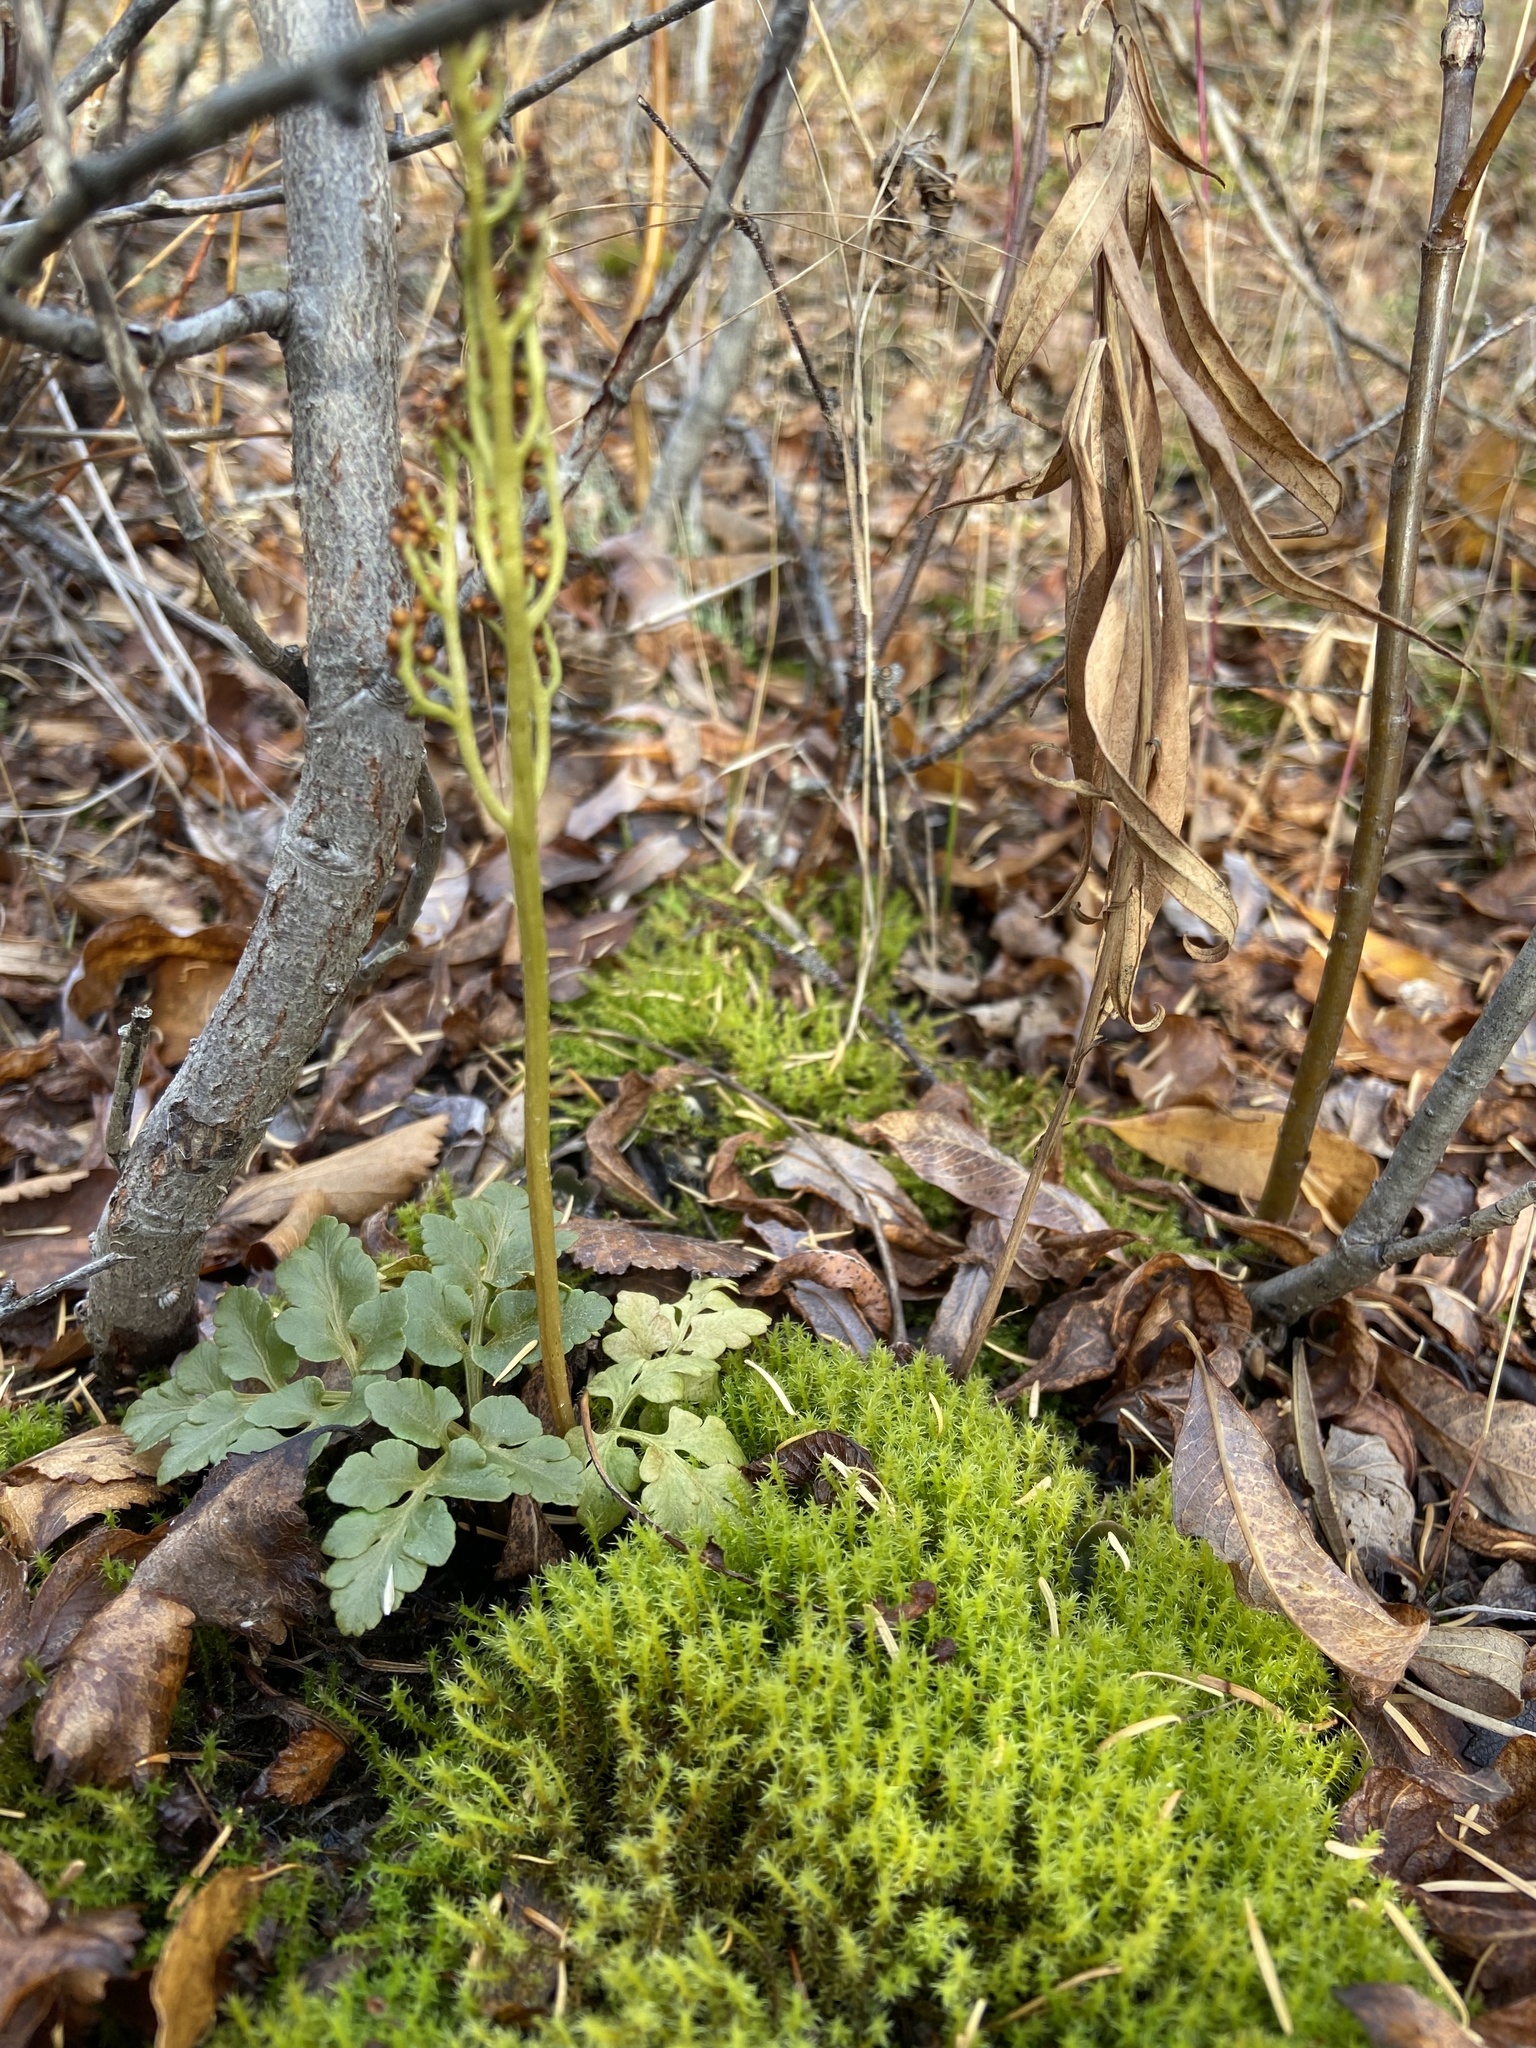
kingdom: Plantae
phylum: Tracheophyta
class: Polypodiopsida
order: Ophioglossales
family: Ophioglossaceae
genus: Sceptridium
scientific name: Sceptridium multifidum
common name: Leathery grape fern
